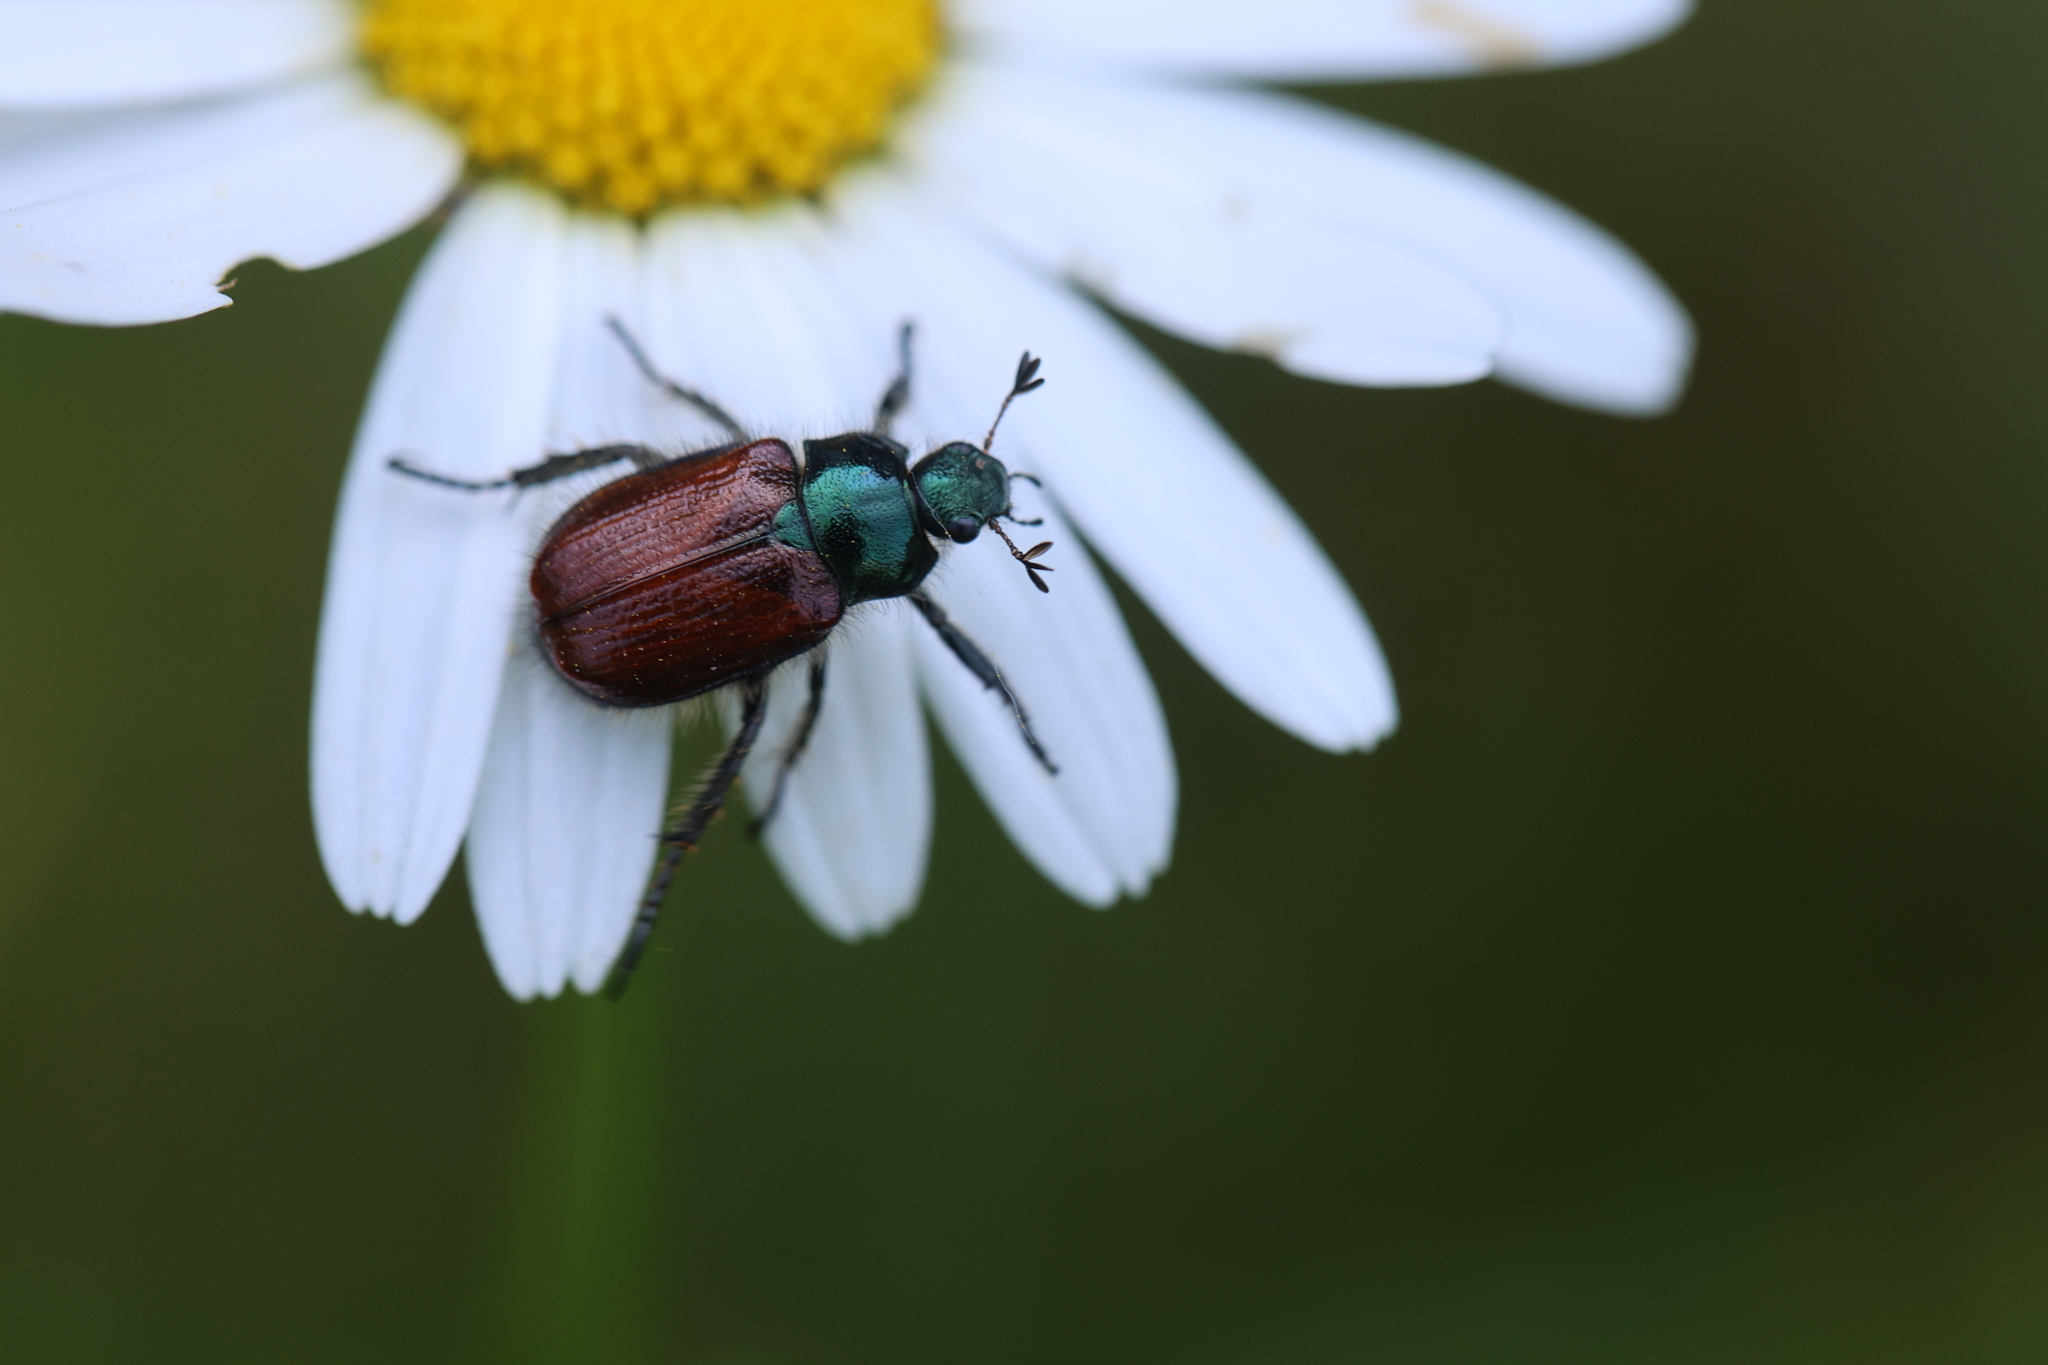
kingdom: Animalia
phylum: Arthropoda
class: Insecta
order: Coleoptera
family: Scarabaeidae
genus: Phyllopertha
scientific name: Phyllopertha horticola
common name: Garden chafer
